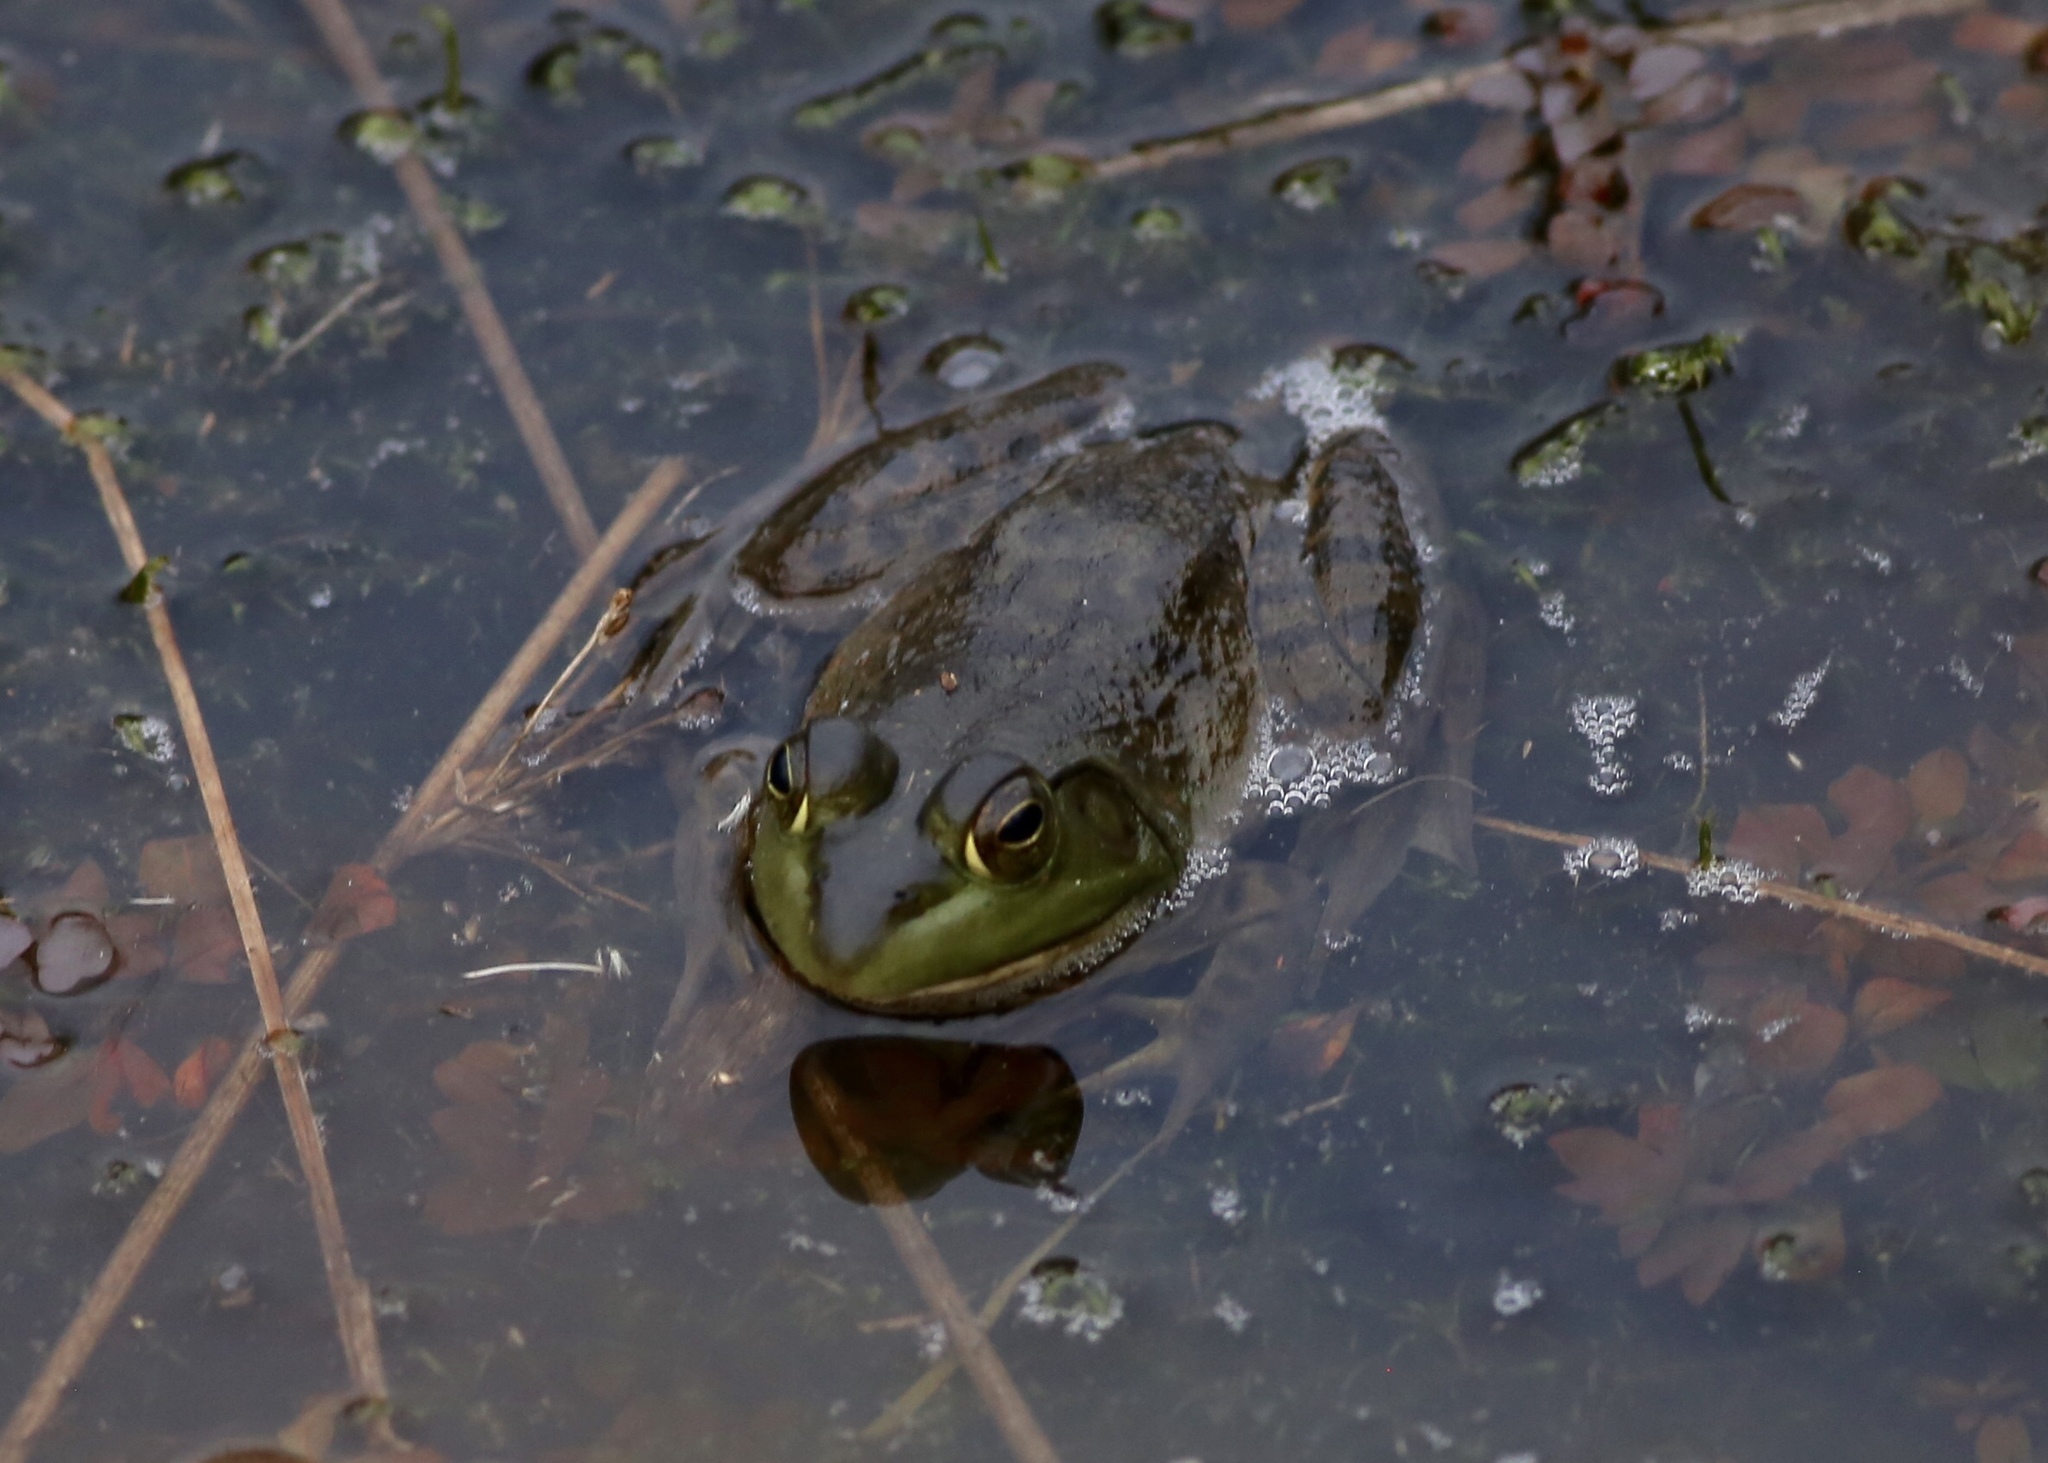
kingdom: Animalia
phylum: Chordata
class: Amphibia
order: Anura
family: Ranidae
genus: Lithobates
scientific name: Lithobates catesbeianus
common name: American bullfrog
